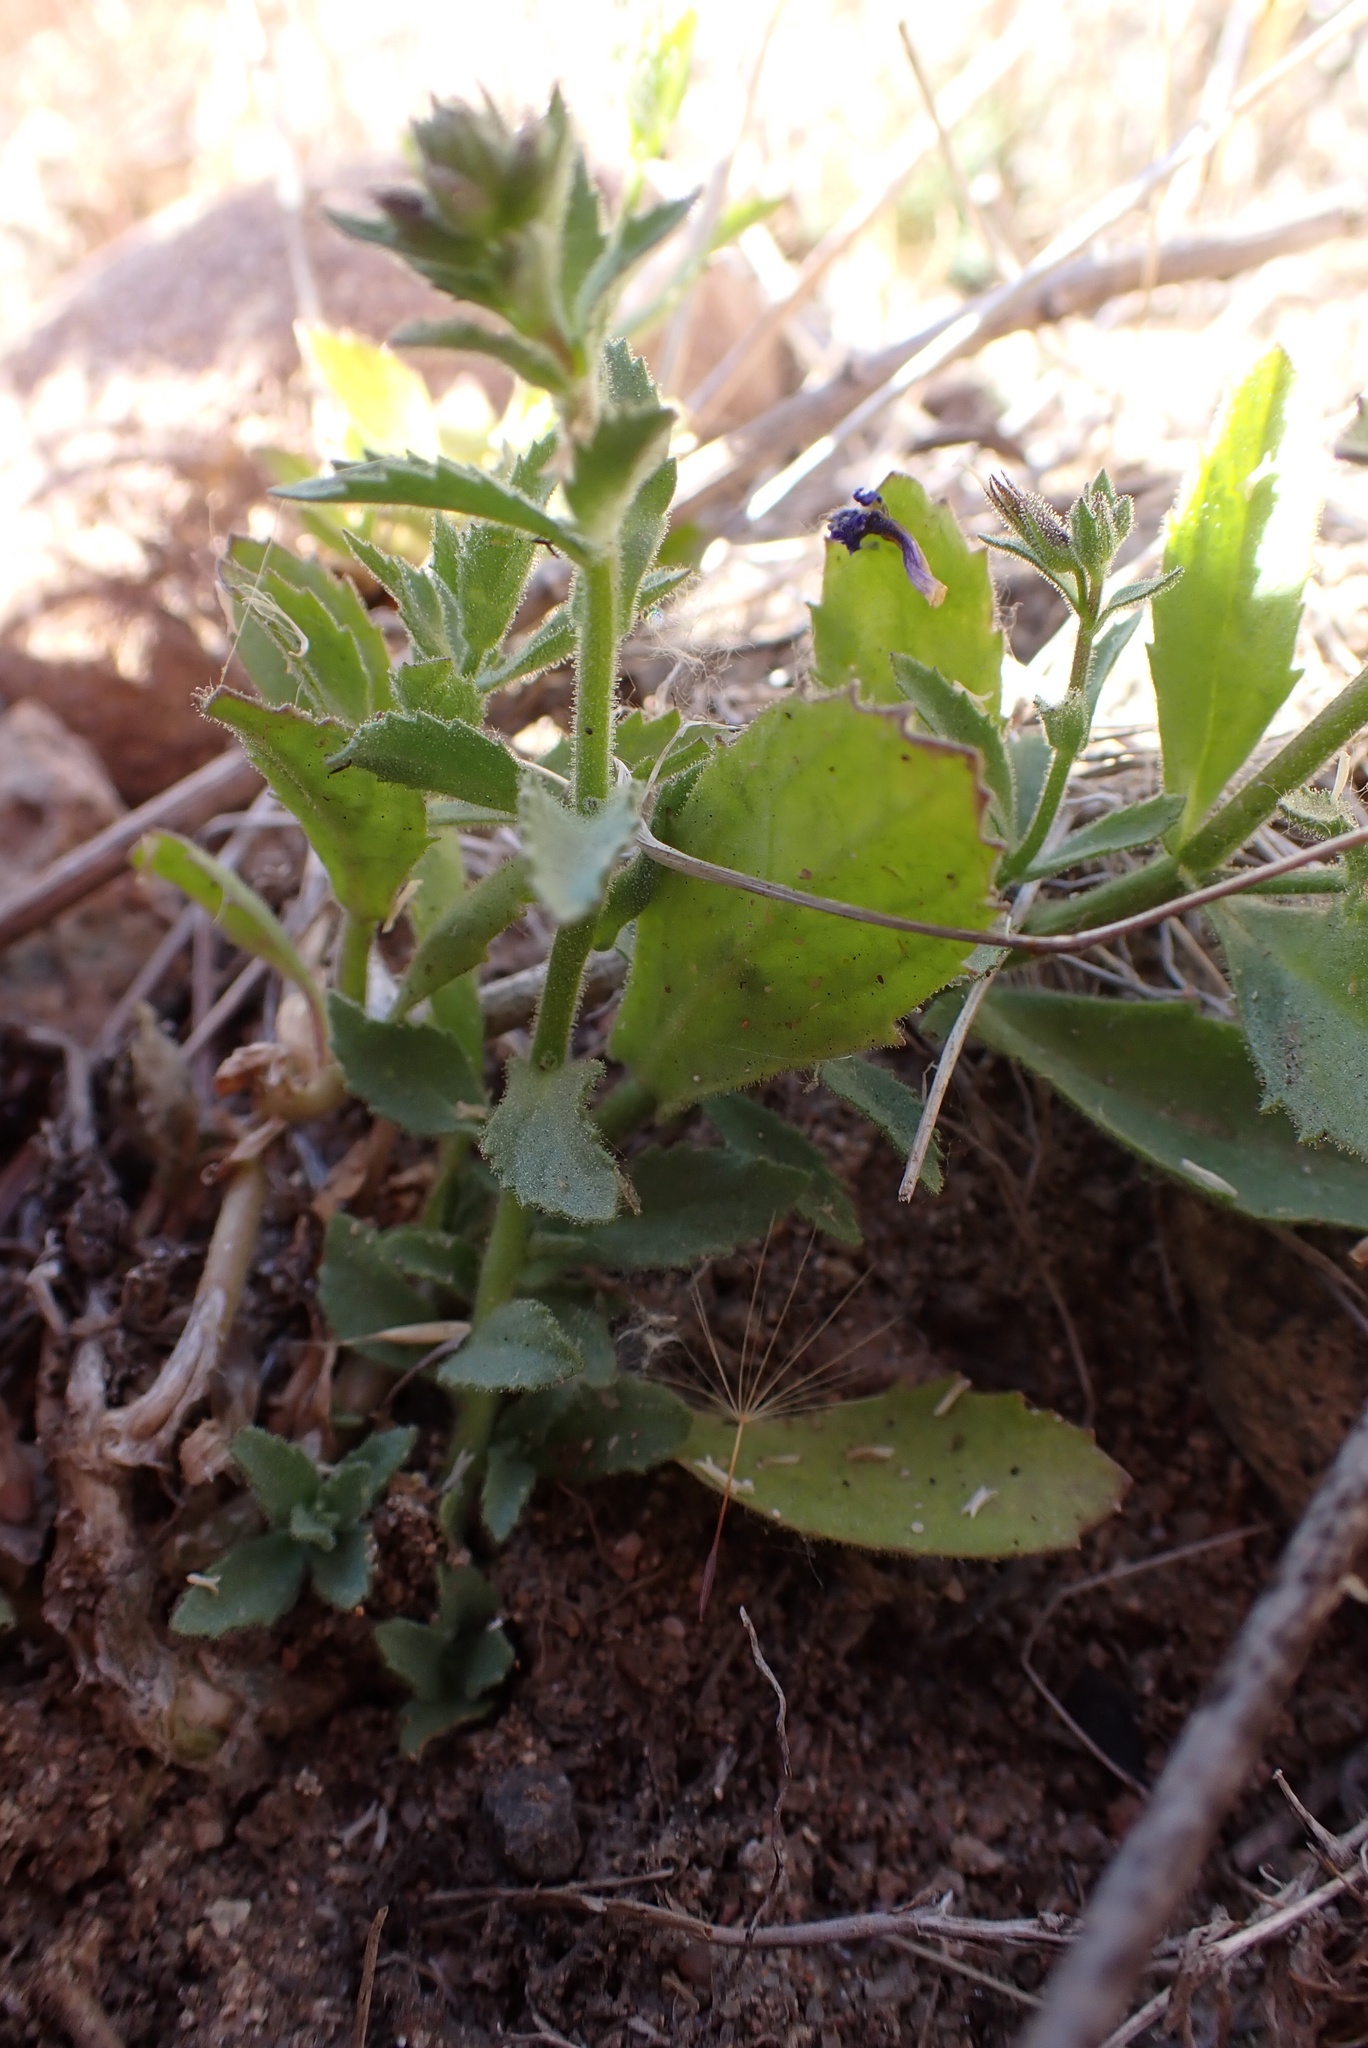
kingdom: Plantae
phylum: Tracheophyta
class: Magnoliopsida
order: Lamiales
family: Plantaginaceae
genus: Stemodia
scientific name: Stemodia durantifolia
